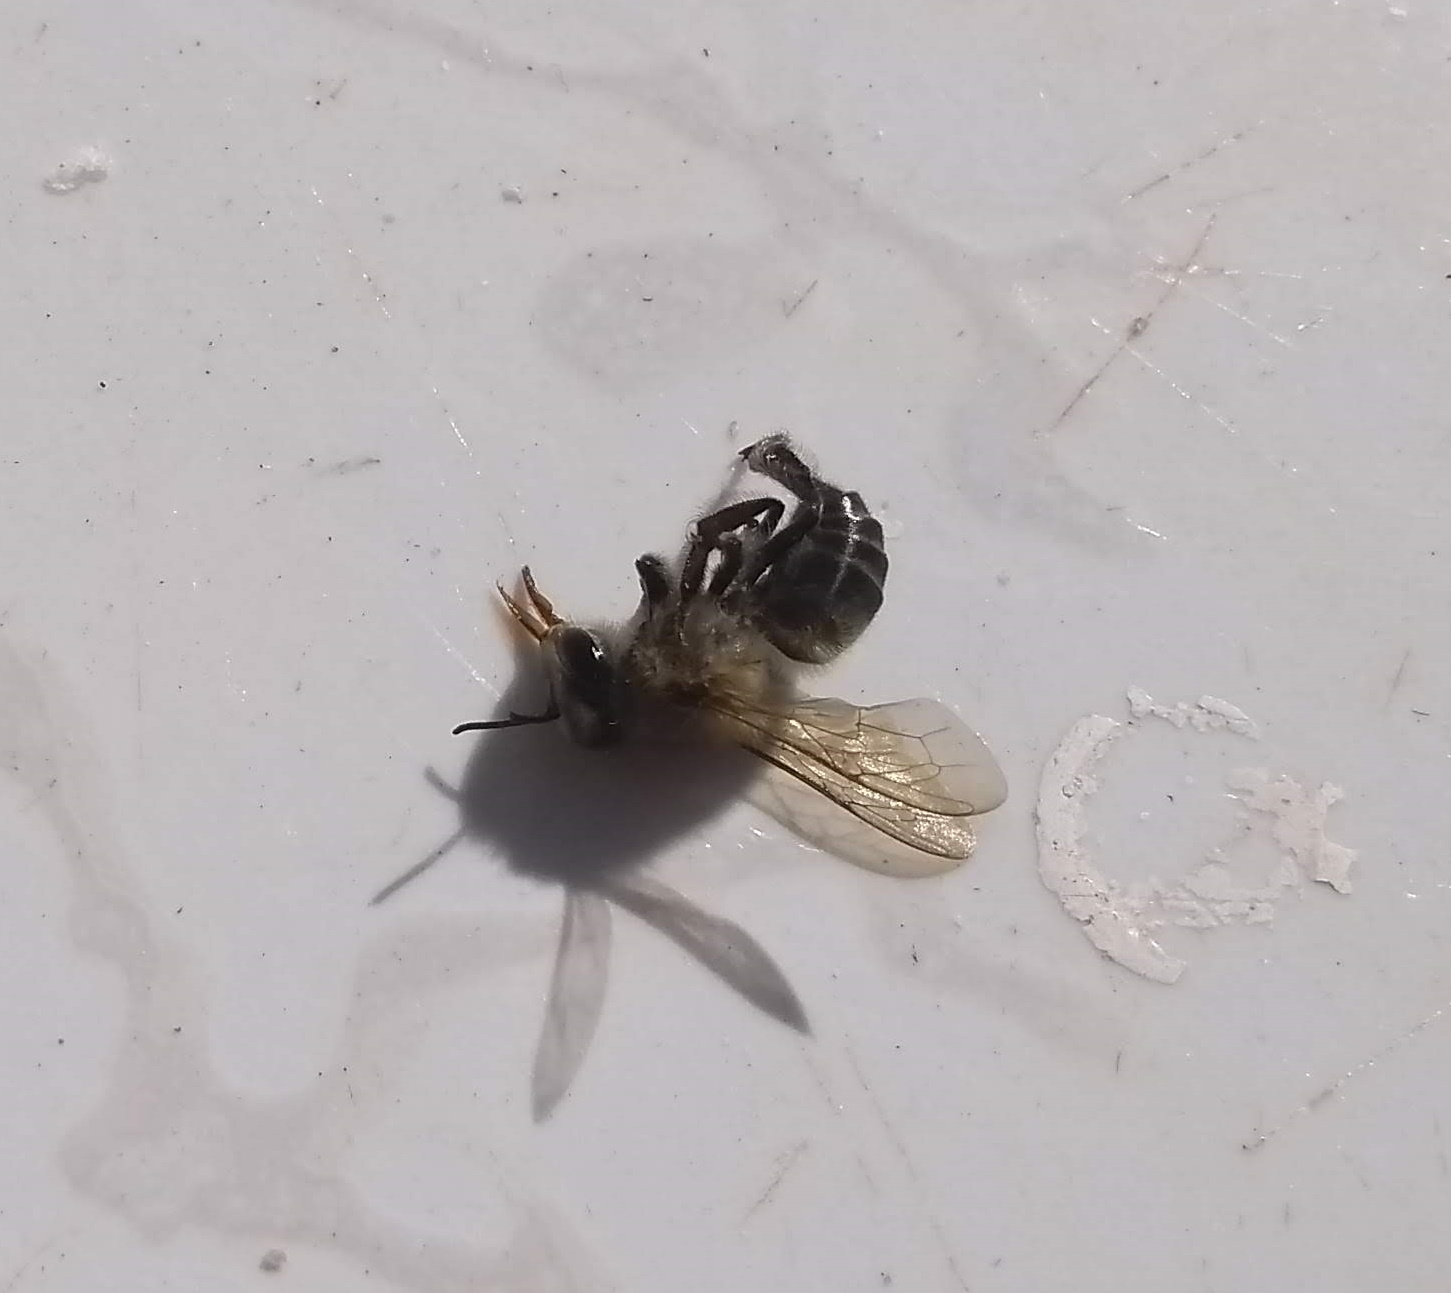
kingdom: Animalia
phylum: Arthropoda
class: Insecta
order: Hymenoptera
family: Apidae
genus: Apis
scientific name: Apis mellifera
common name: Honey bee
